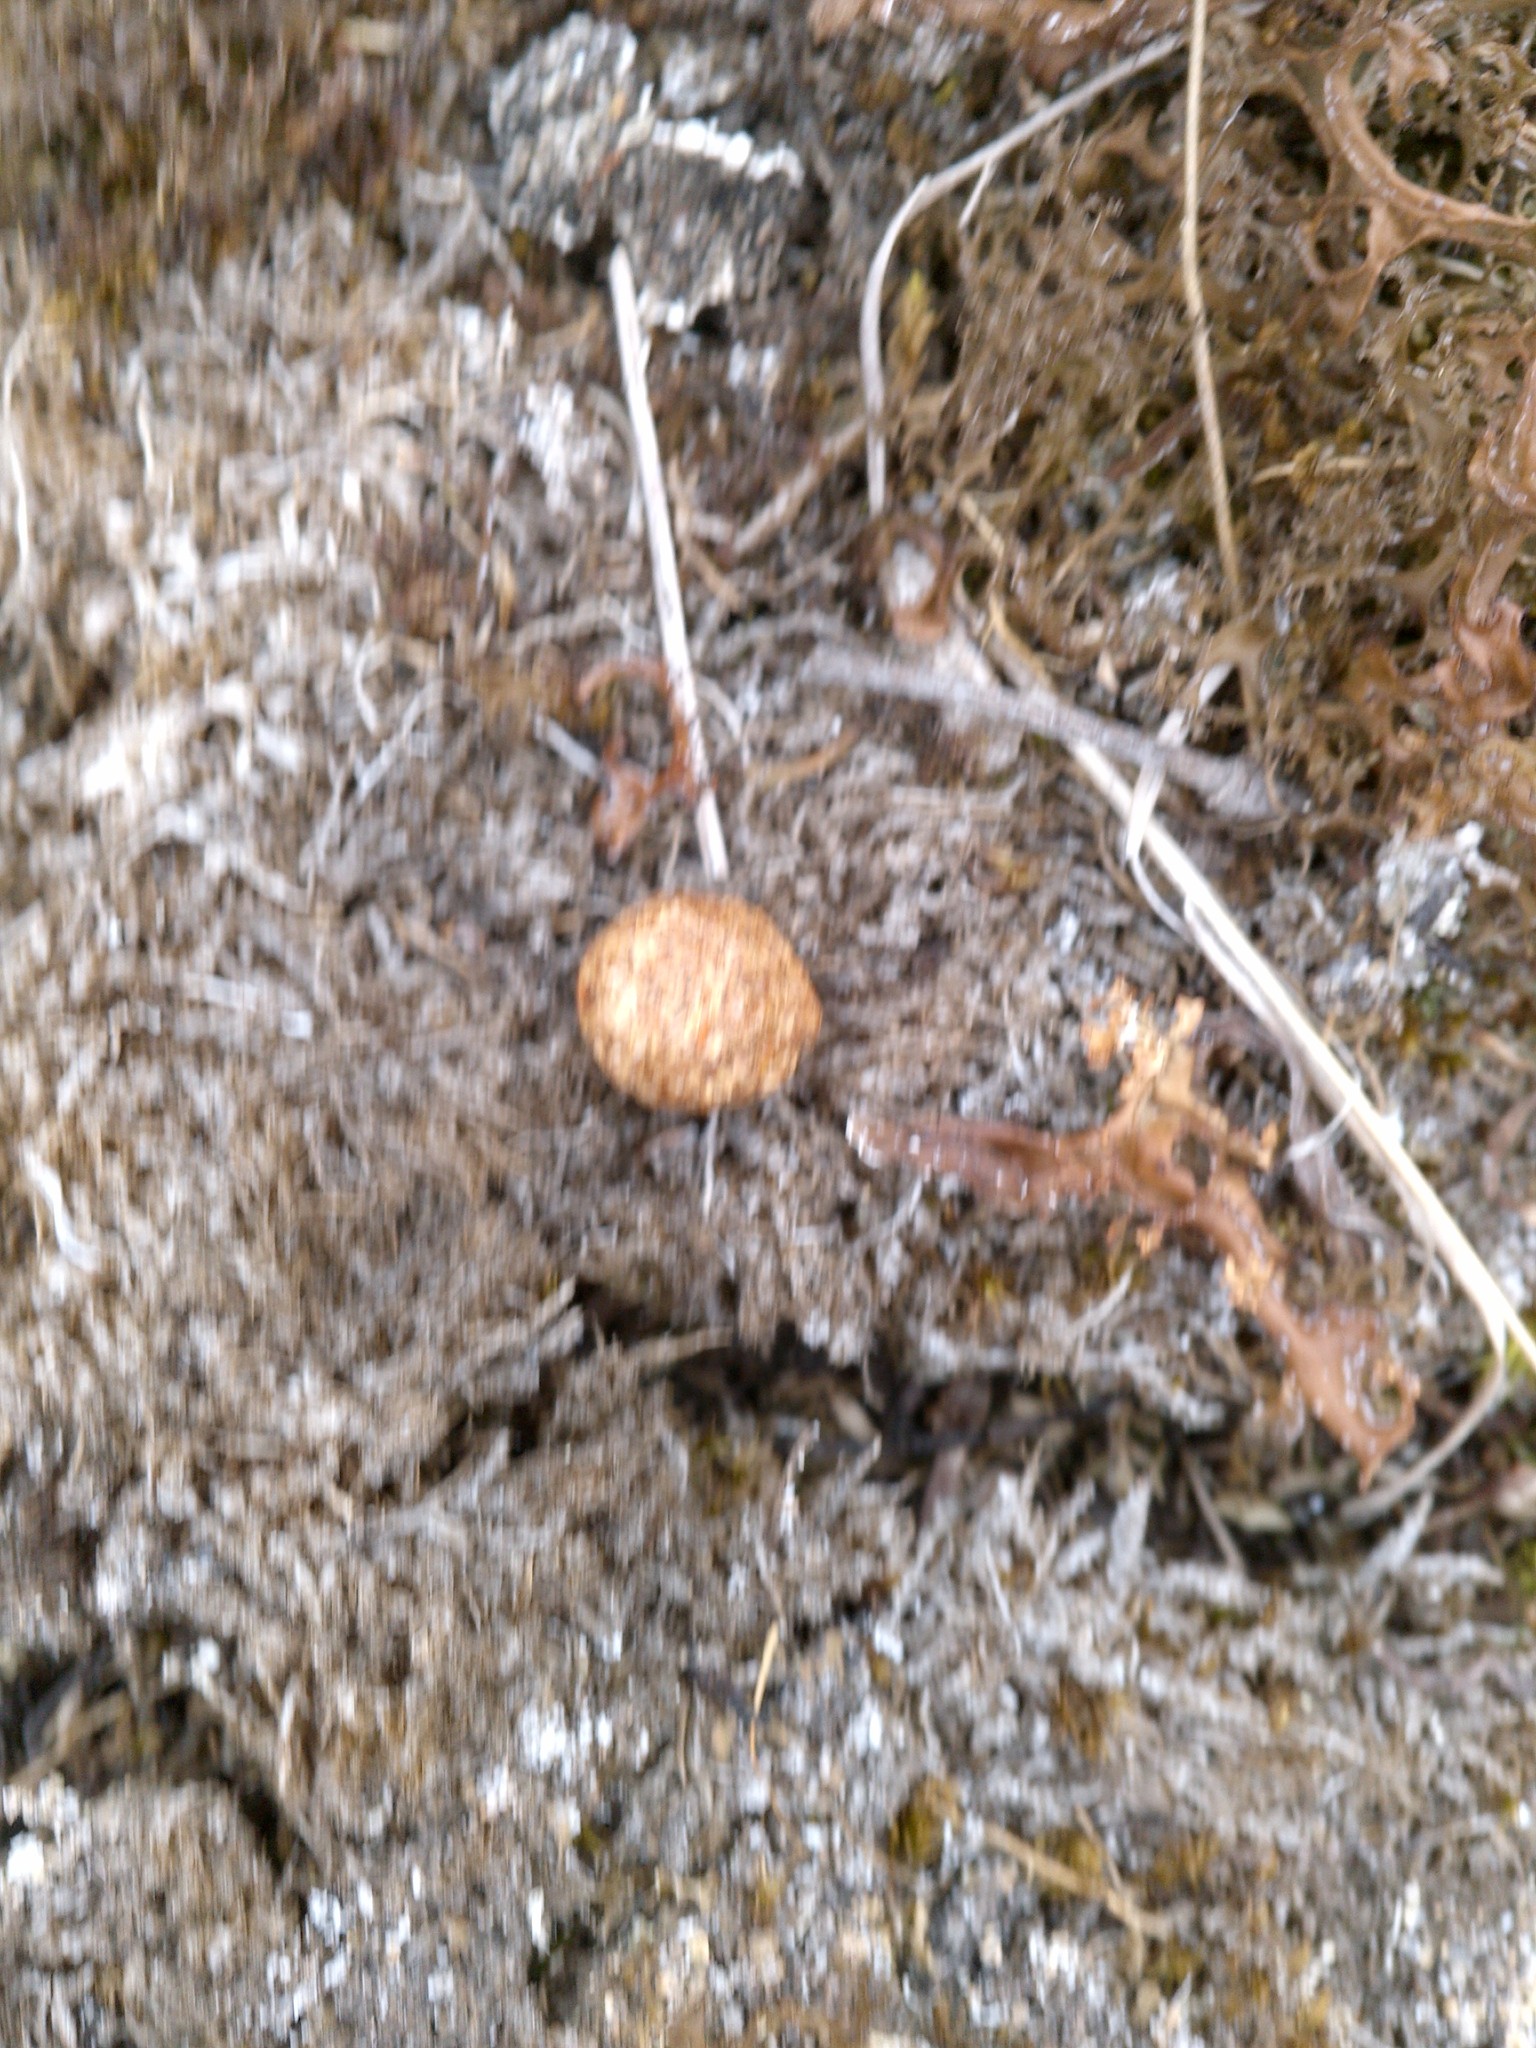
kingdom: Animalia
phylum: Chordata
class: Mammalia
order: Lagomorpha
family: Leporidae
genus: Lepus
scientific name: Lepus americanus
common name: Snowshoe hare
